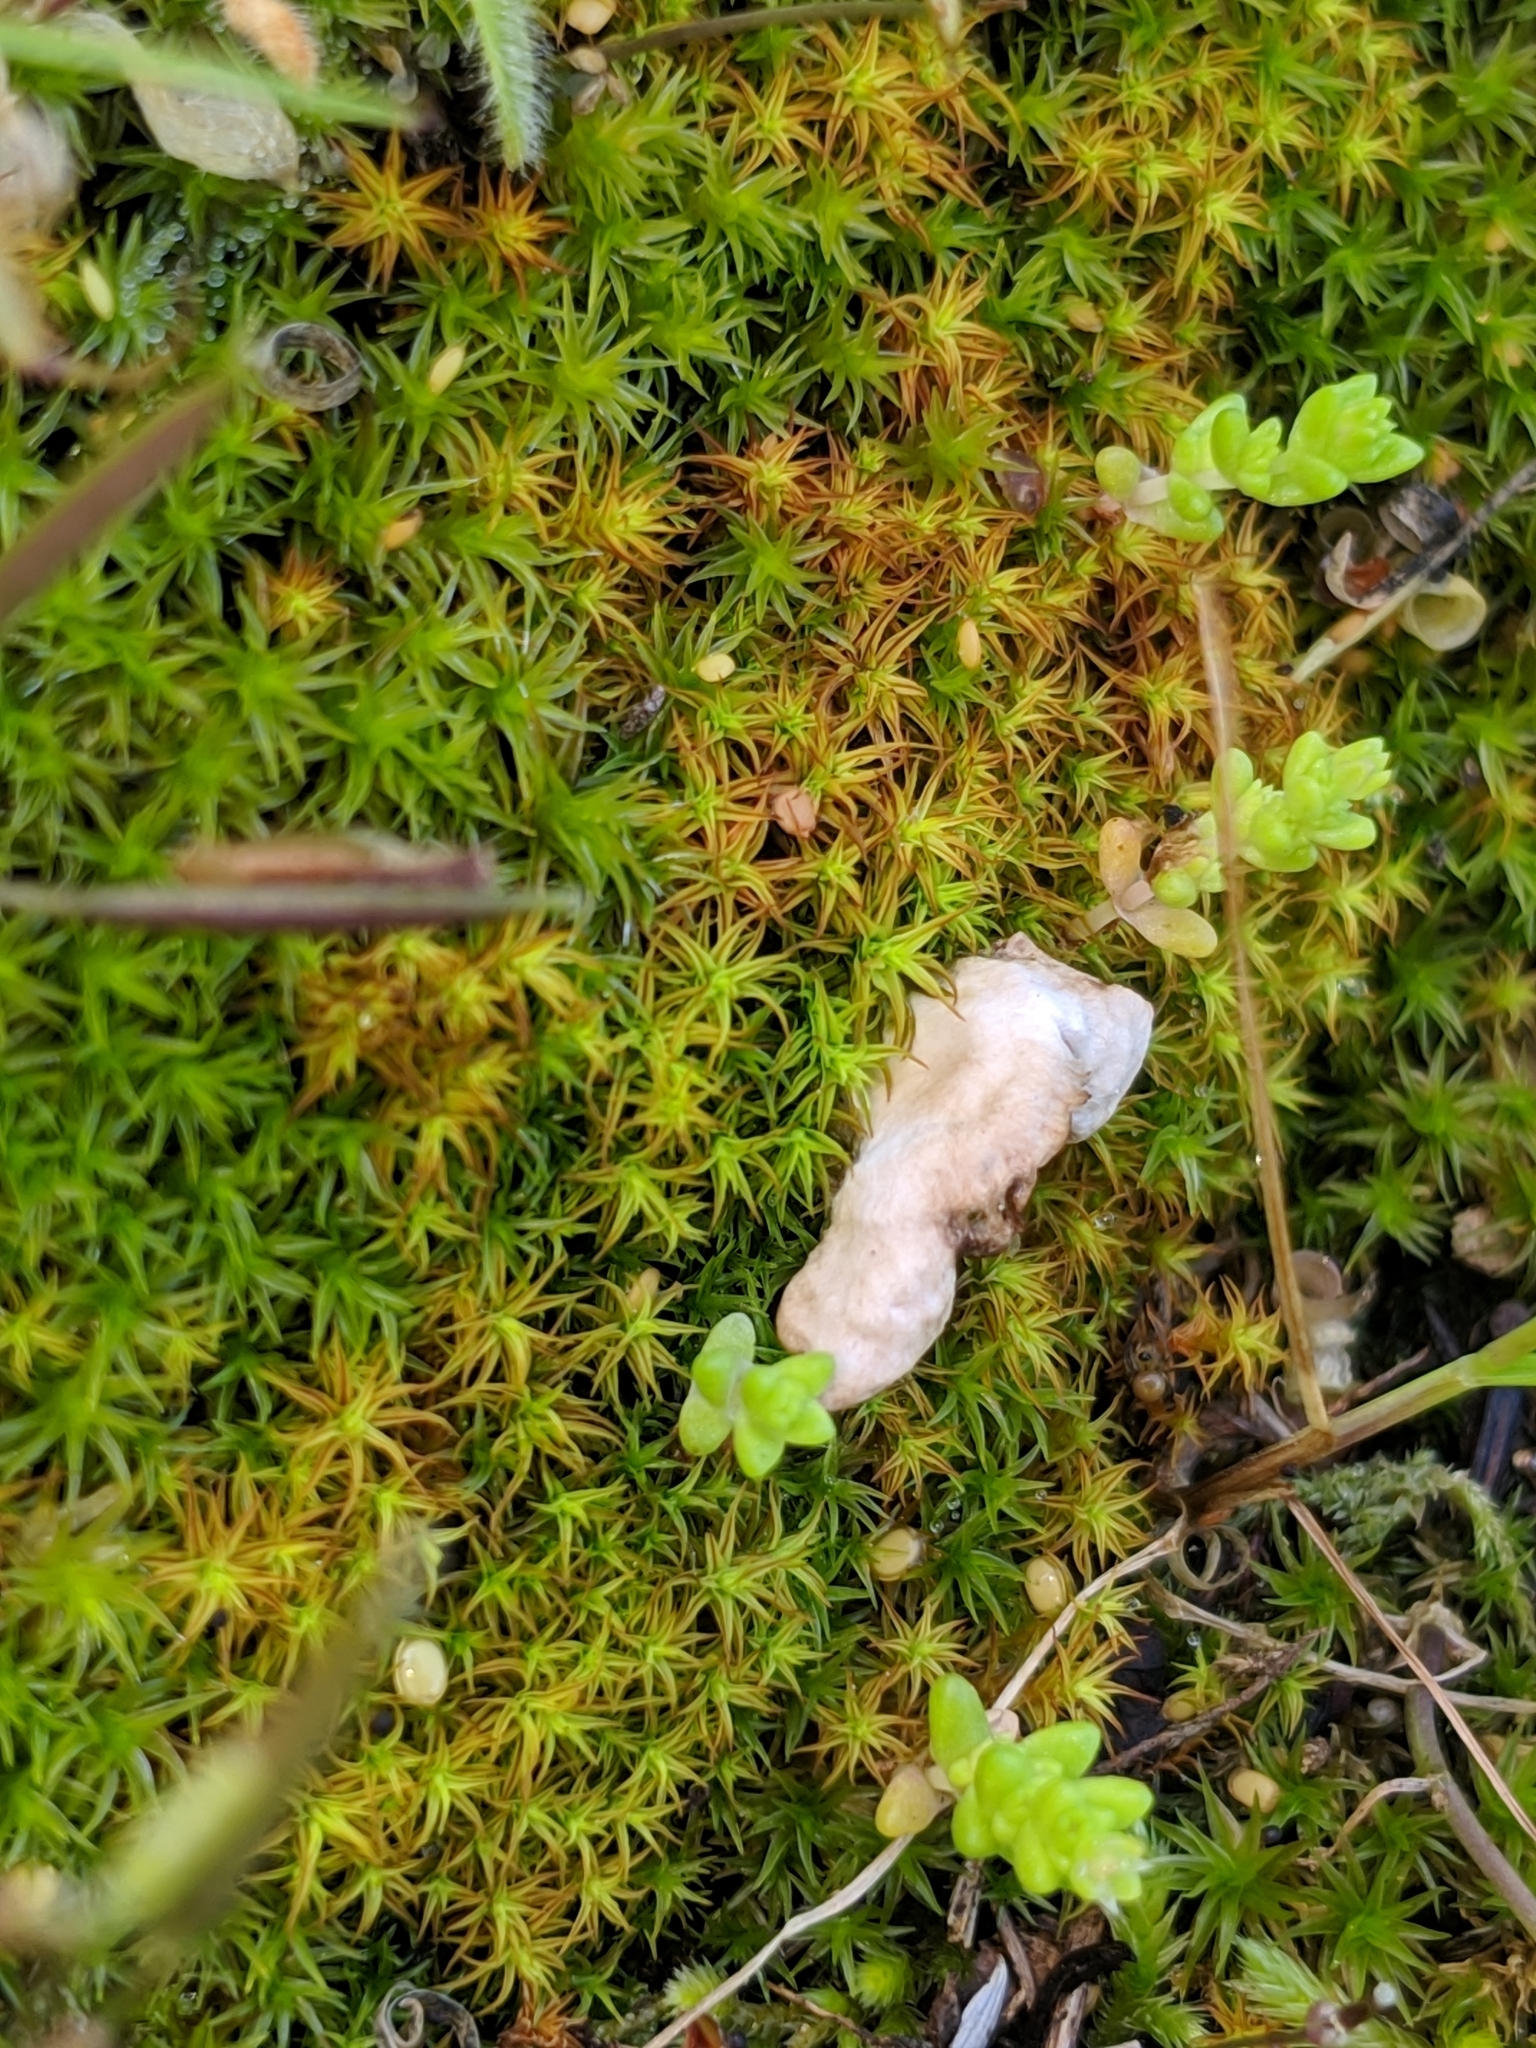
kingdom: Fungi
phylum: Basidiomycota
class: Agaricomycetes
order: Agaricales
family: Hygrophoraceae
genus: Arrhenia
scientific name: Arrhenia retiruga
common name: Small moss oysterling
